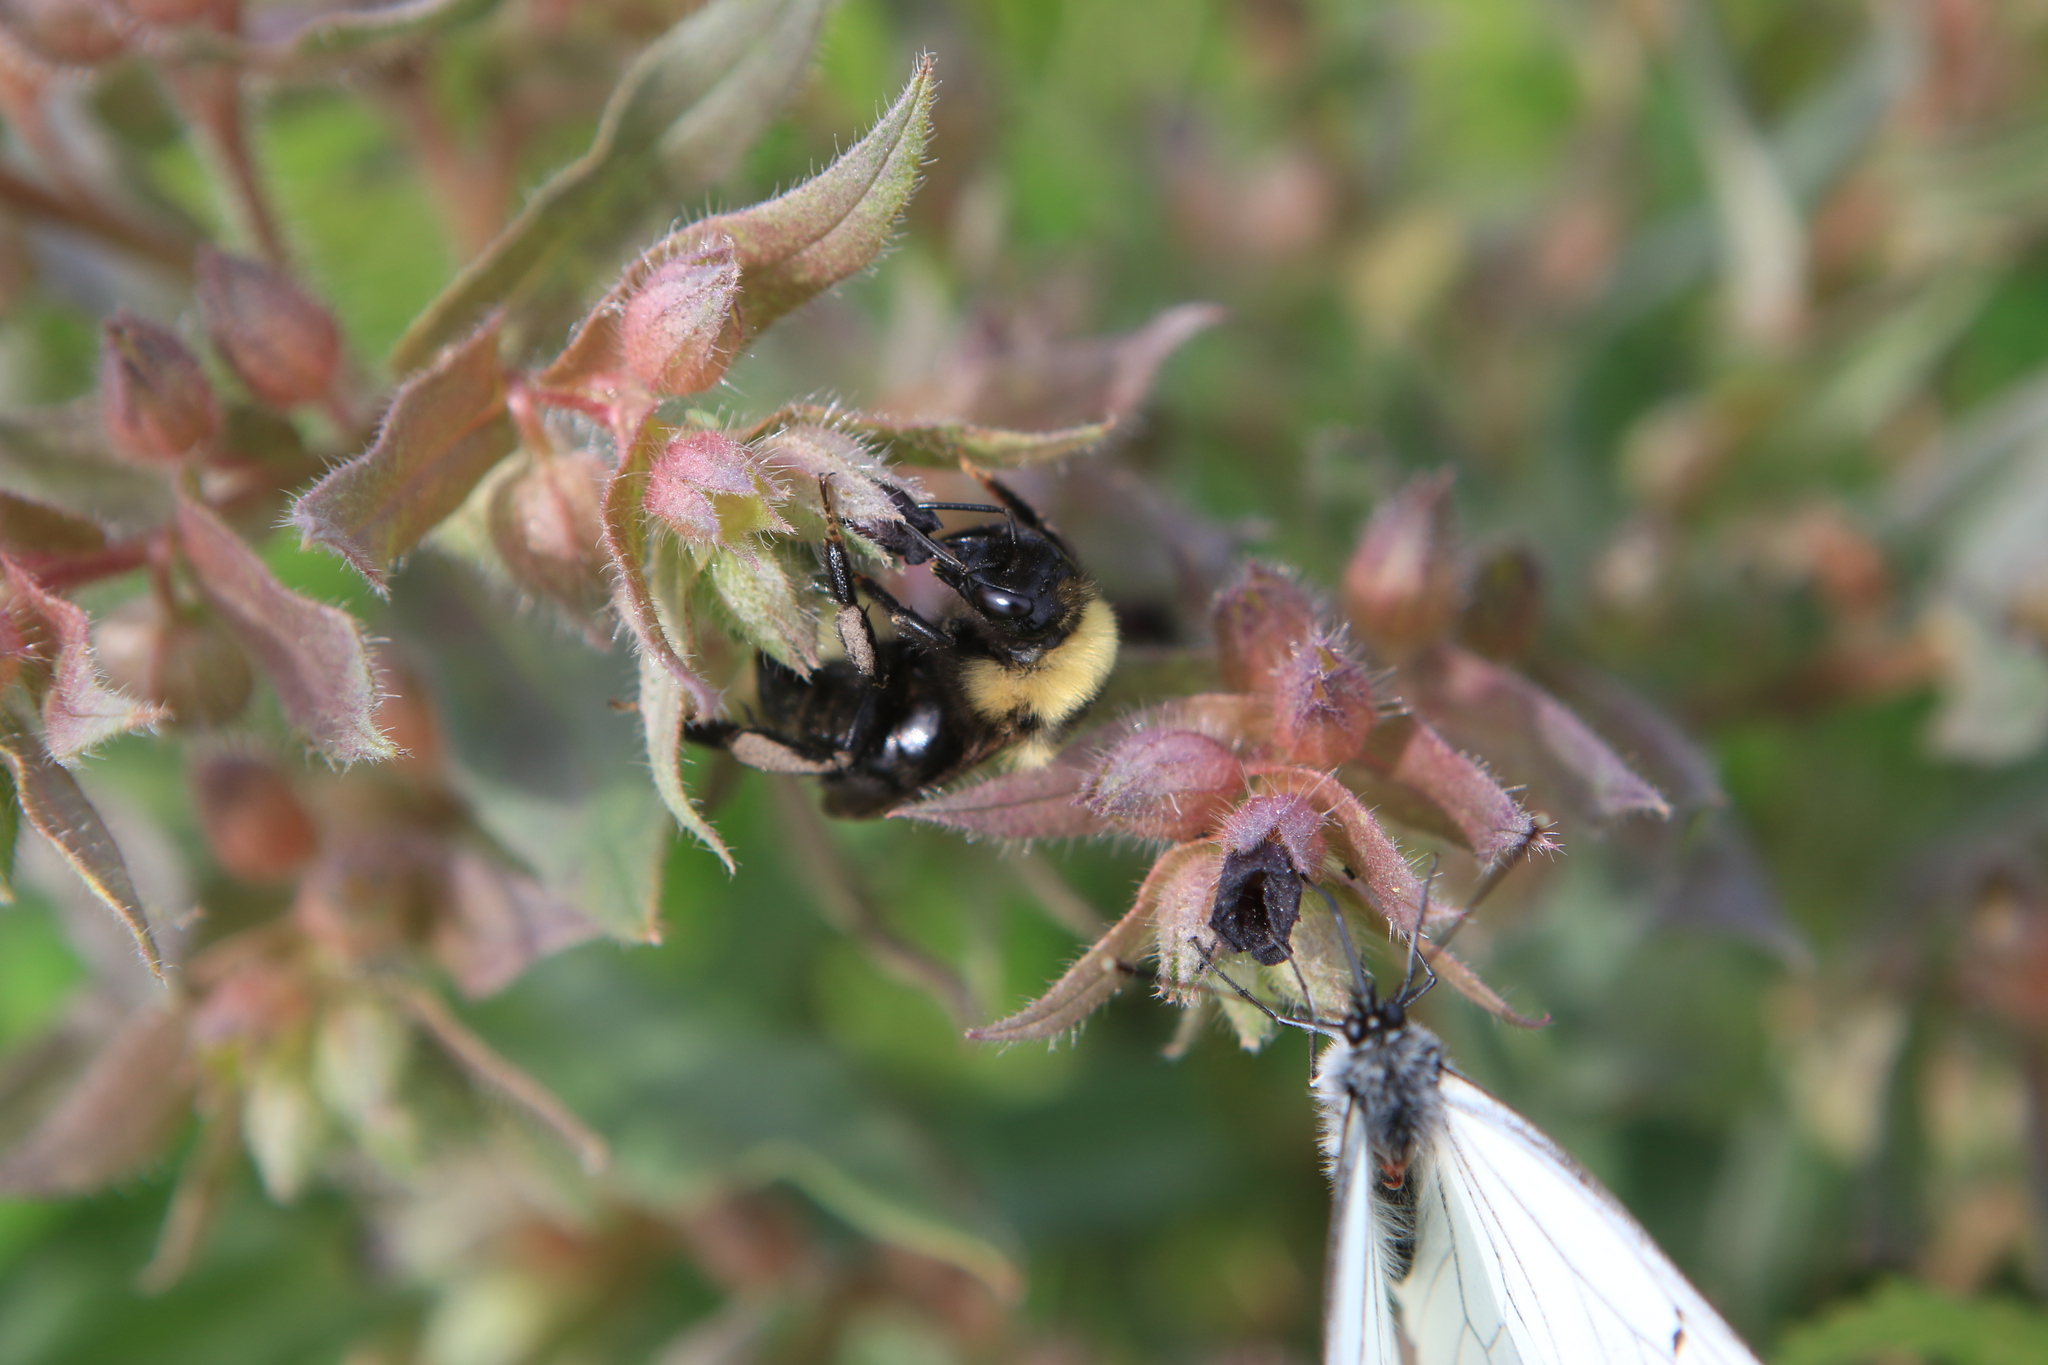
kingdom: Animalia
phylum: Arthropoda
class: Insecta
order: Hymenoptera
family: Apidae
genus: Bombus
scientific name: Bombus
